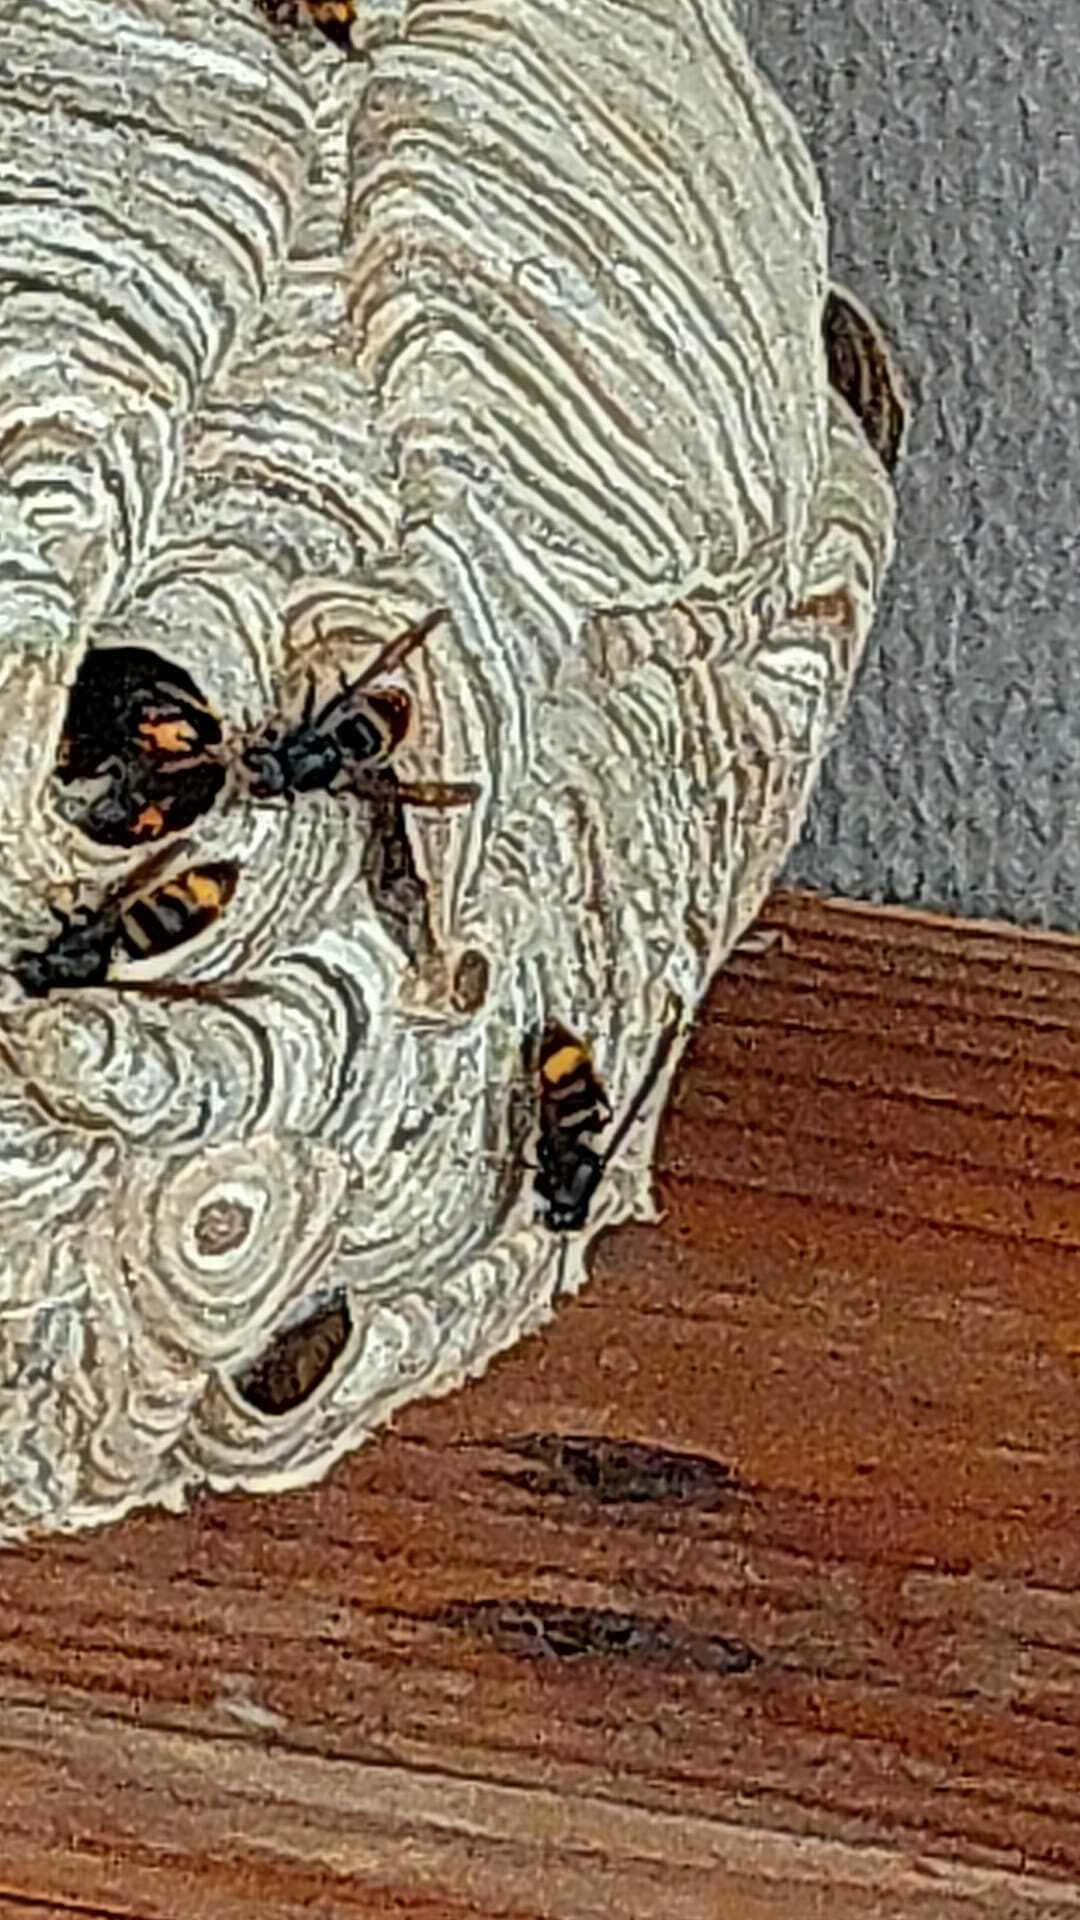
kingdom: Animalia
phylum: Arthropoda
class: Insecta
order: Hymenoptera
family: Vespidae
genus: Vespa
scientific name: Vespa velutina
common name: Asian hornet
